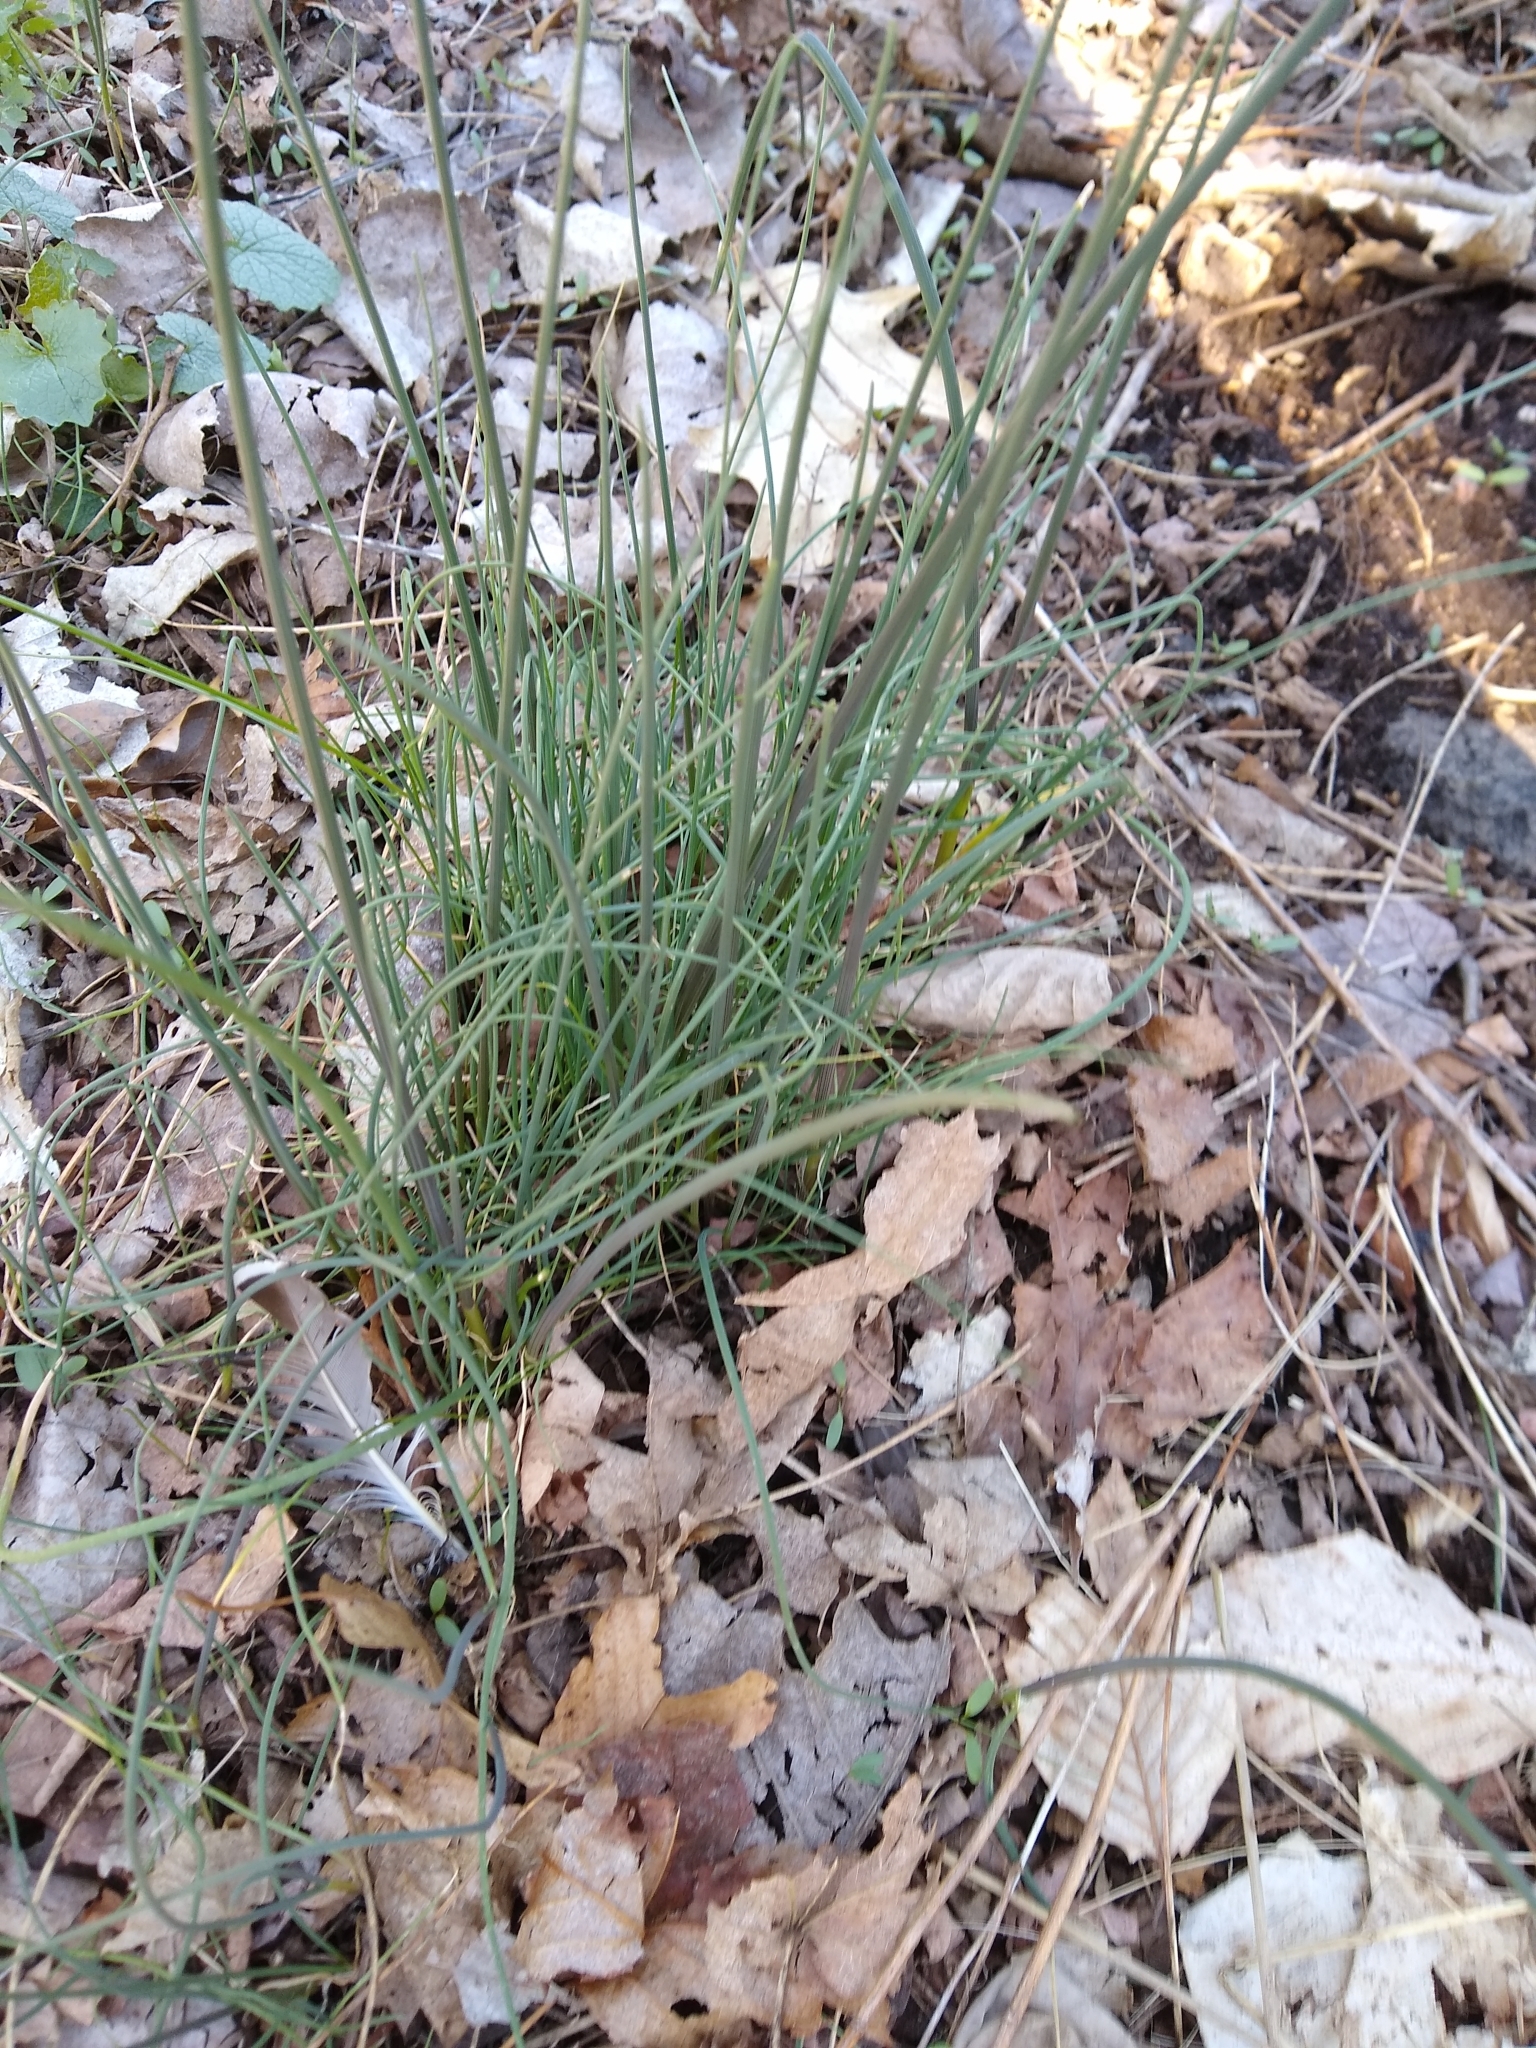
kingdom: Plantae
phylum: Tracheophyta
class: Liliopsida
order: Asparagales
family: Amaryllidaceae
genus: Allium
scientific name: Allium vineale
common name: Crow garlic
